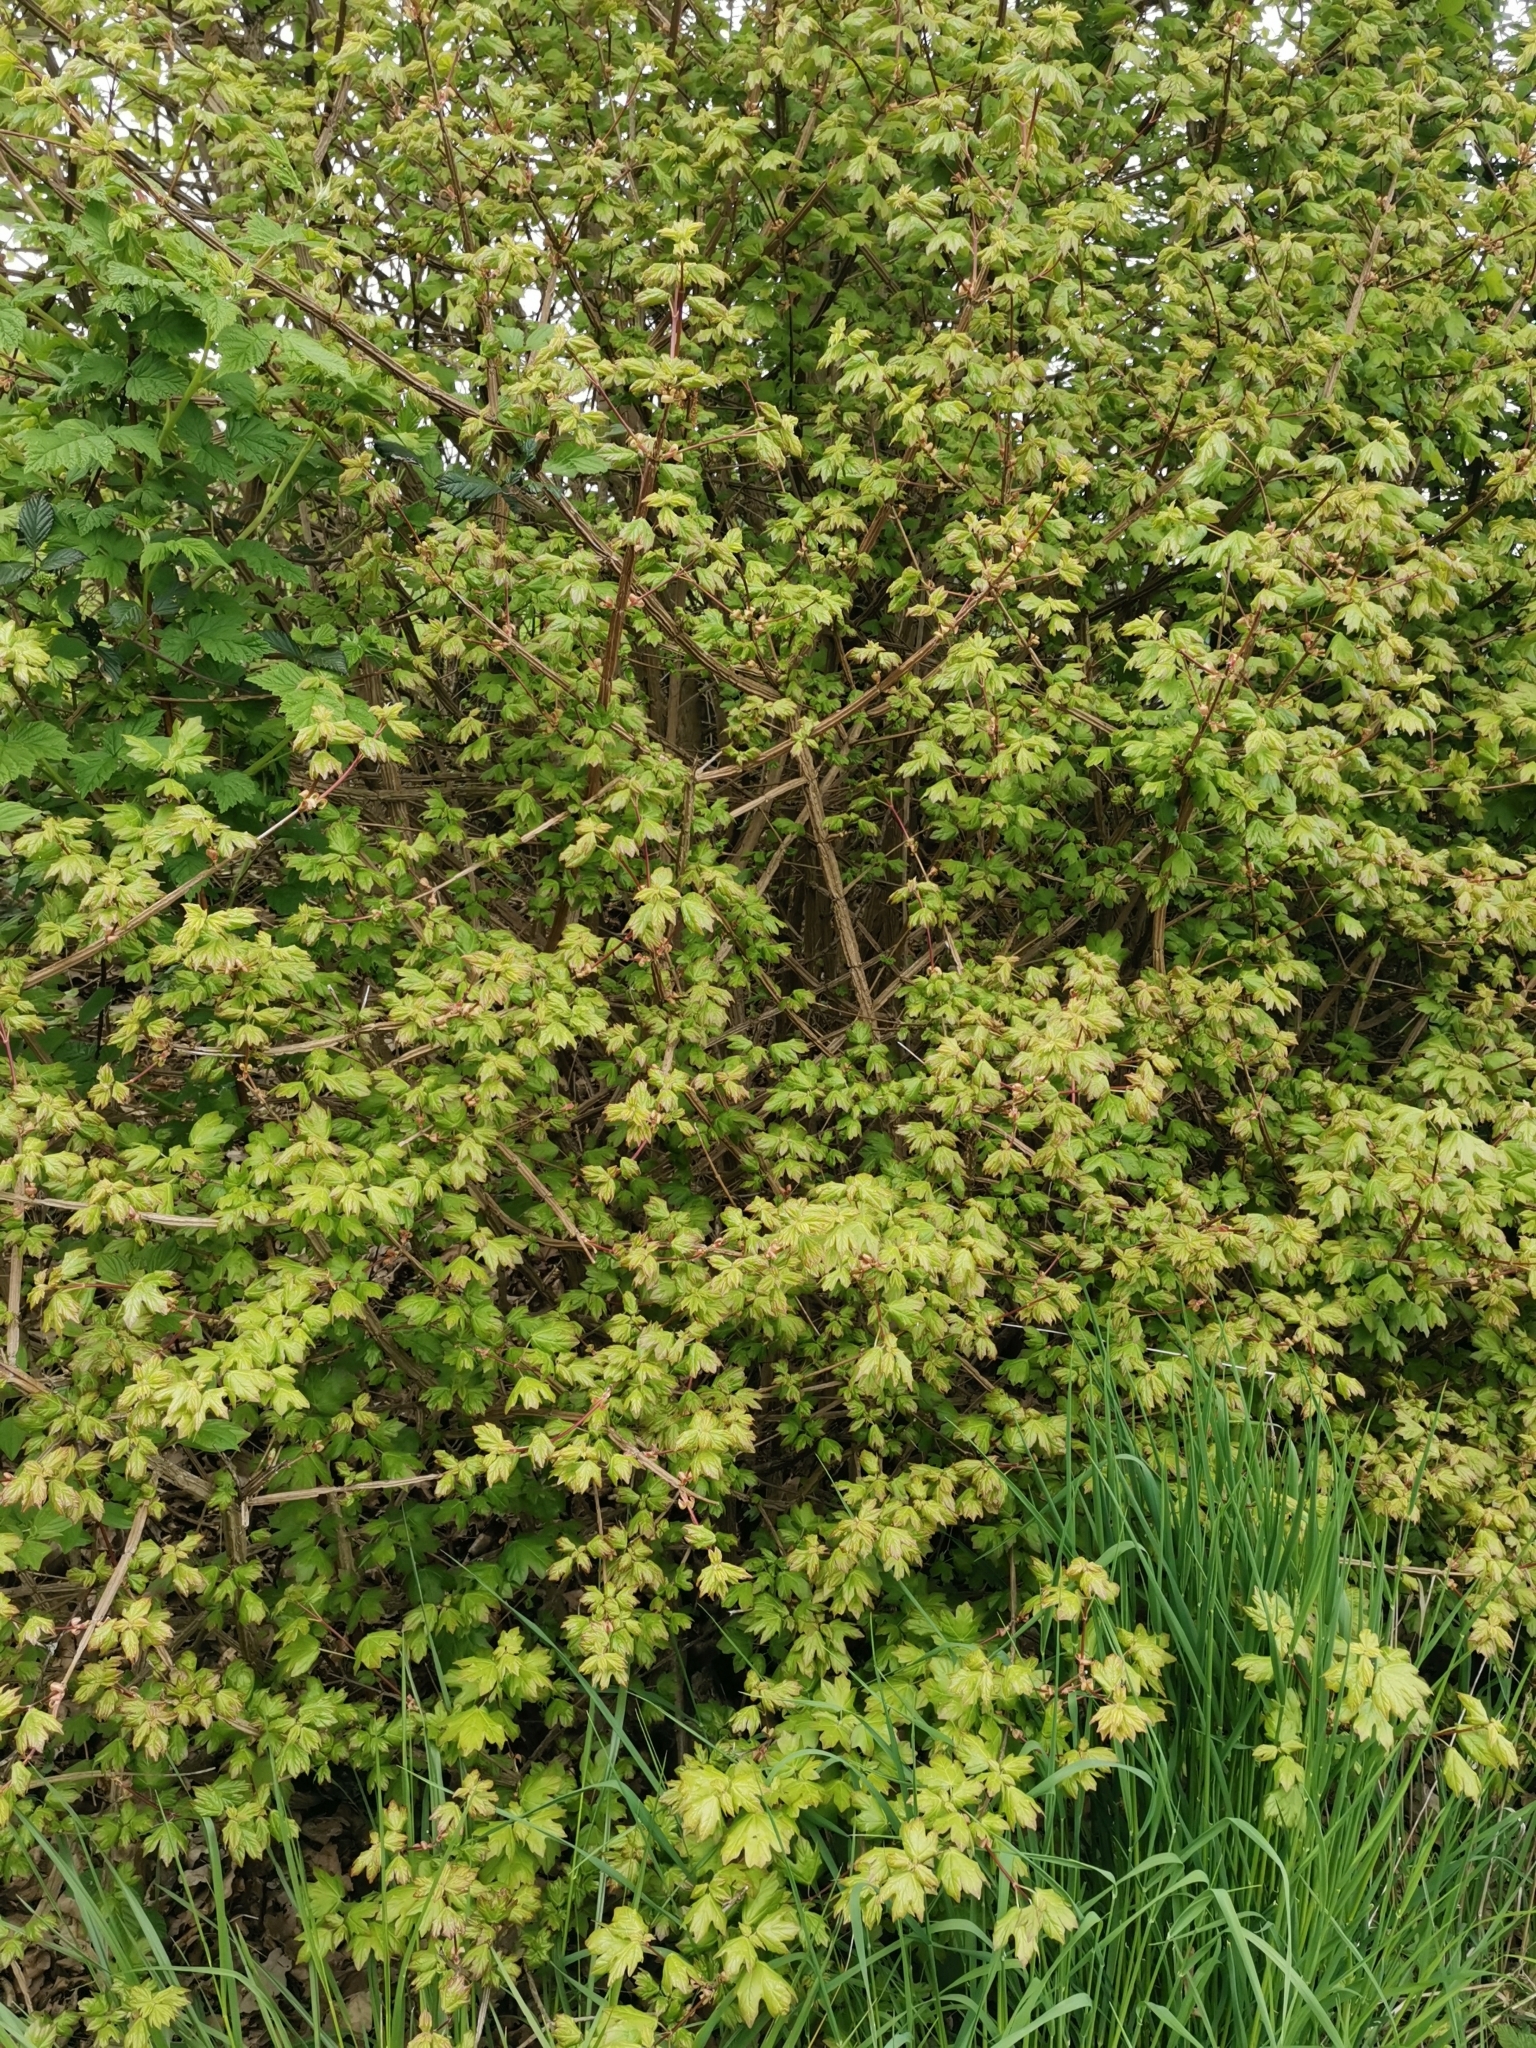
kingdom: Plantae
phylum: Tracheophyta
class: Magnoliopsida
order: Sapindales
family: Sapindaceae
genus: Acer
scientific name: Acer campestre
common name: Field maple
